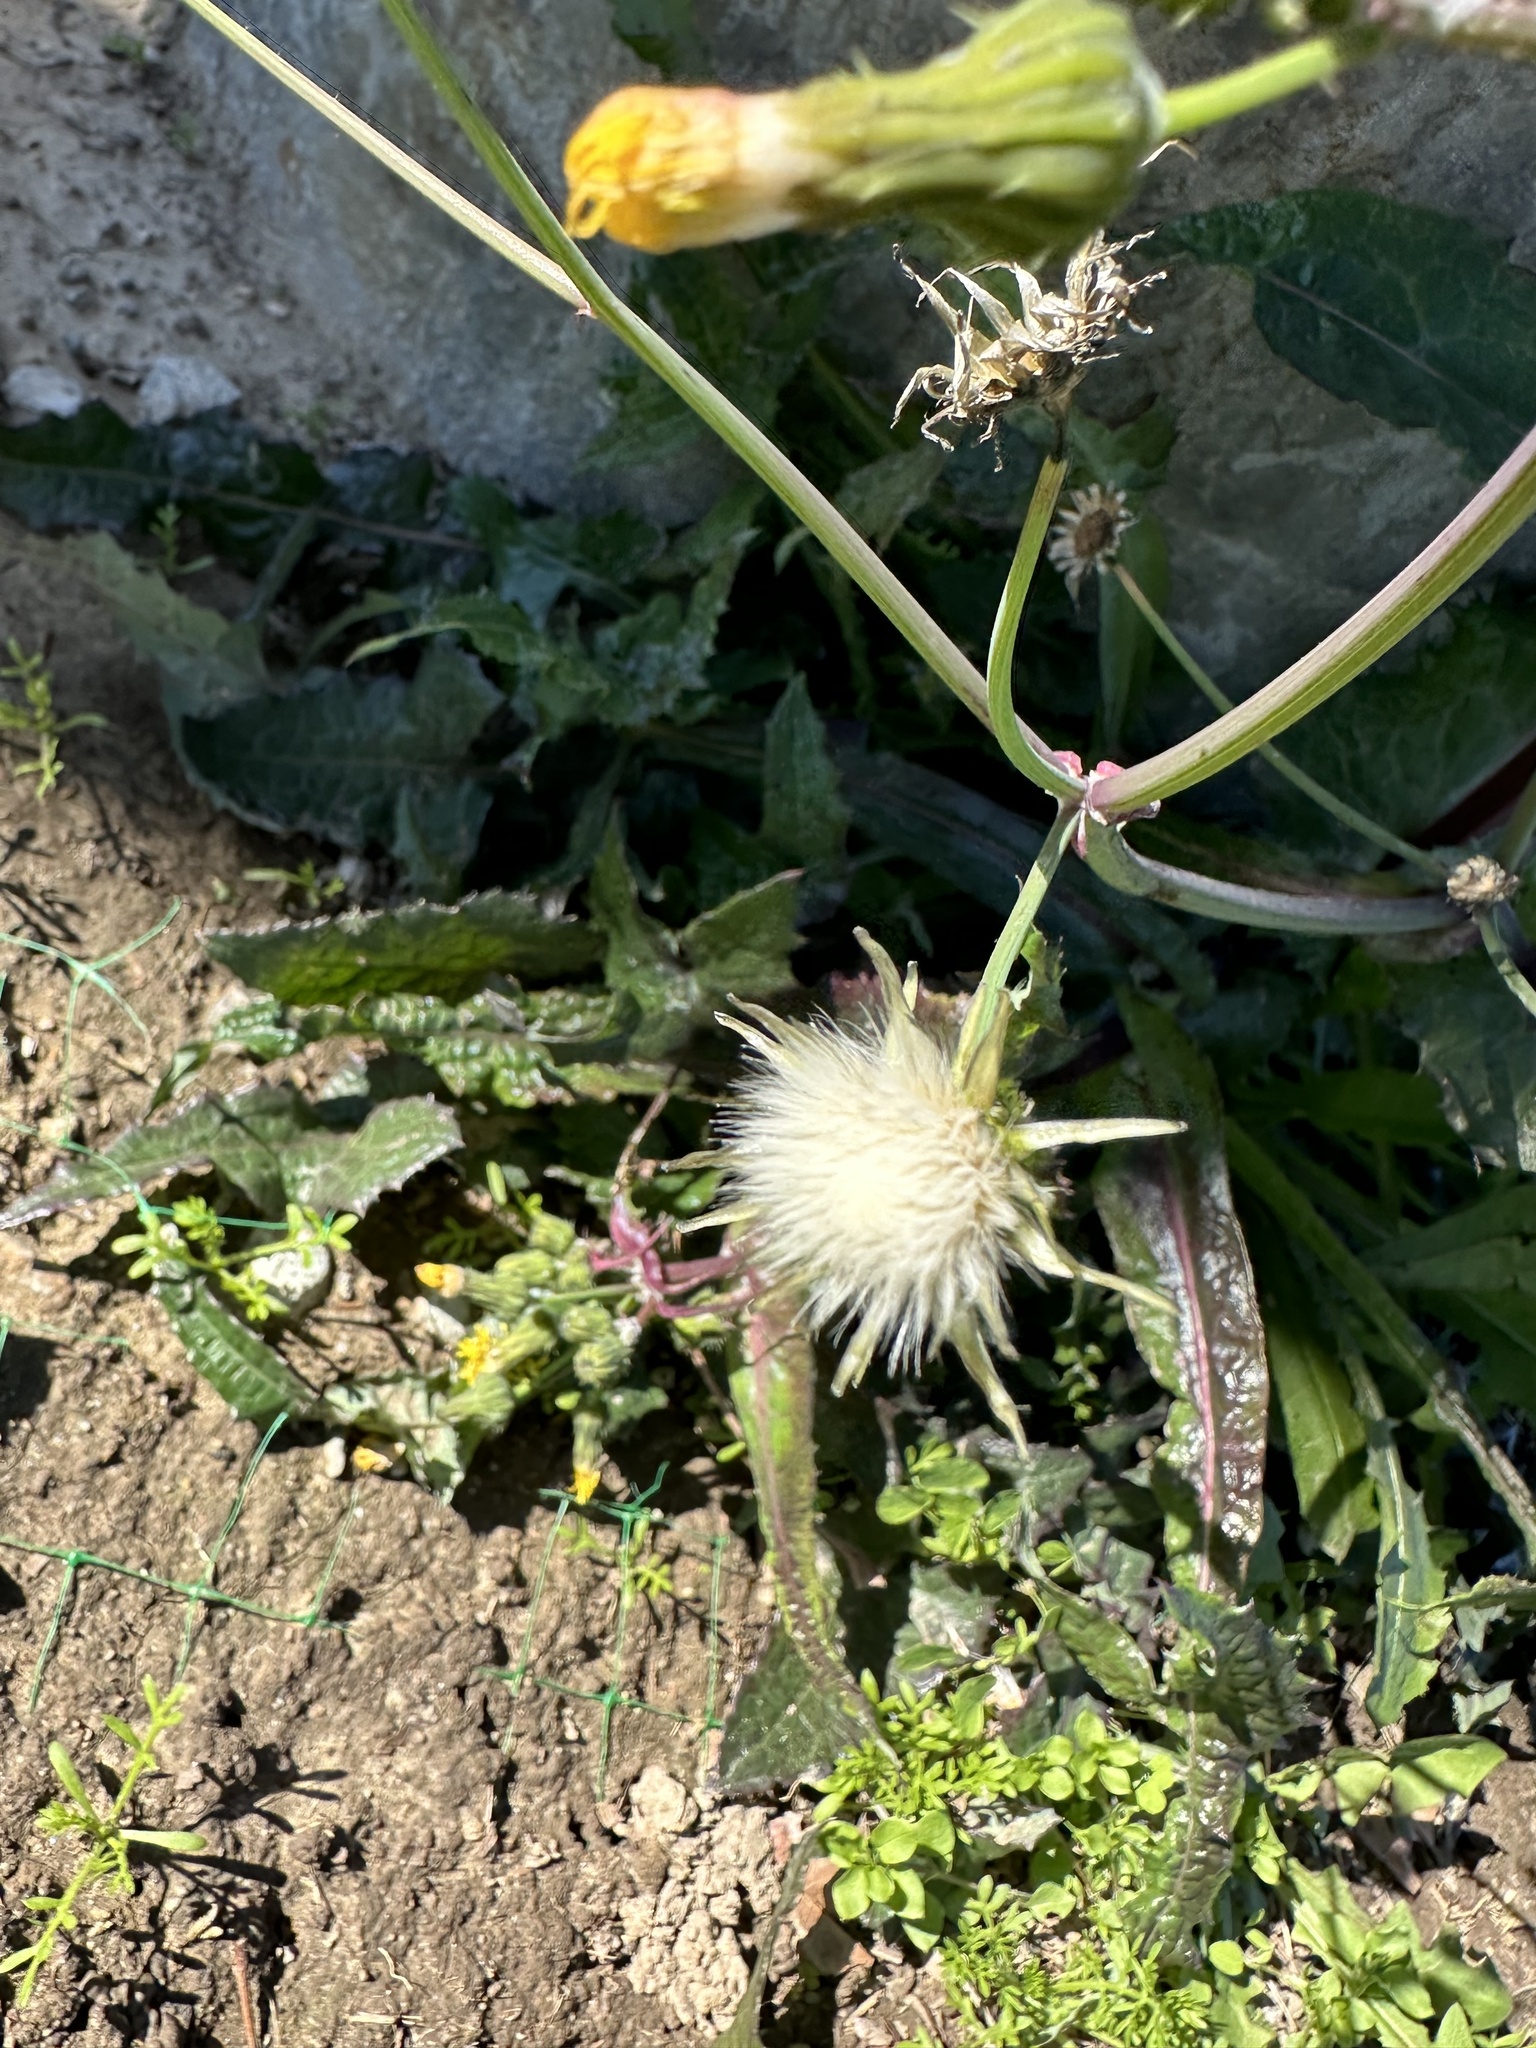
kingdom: Plantae
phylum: Tracheophyta
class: Magnoliopsida
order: Asterales
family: Asteraceae
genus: Sonchus
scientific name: Sonchus oleraceus
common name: Common sowthistle
